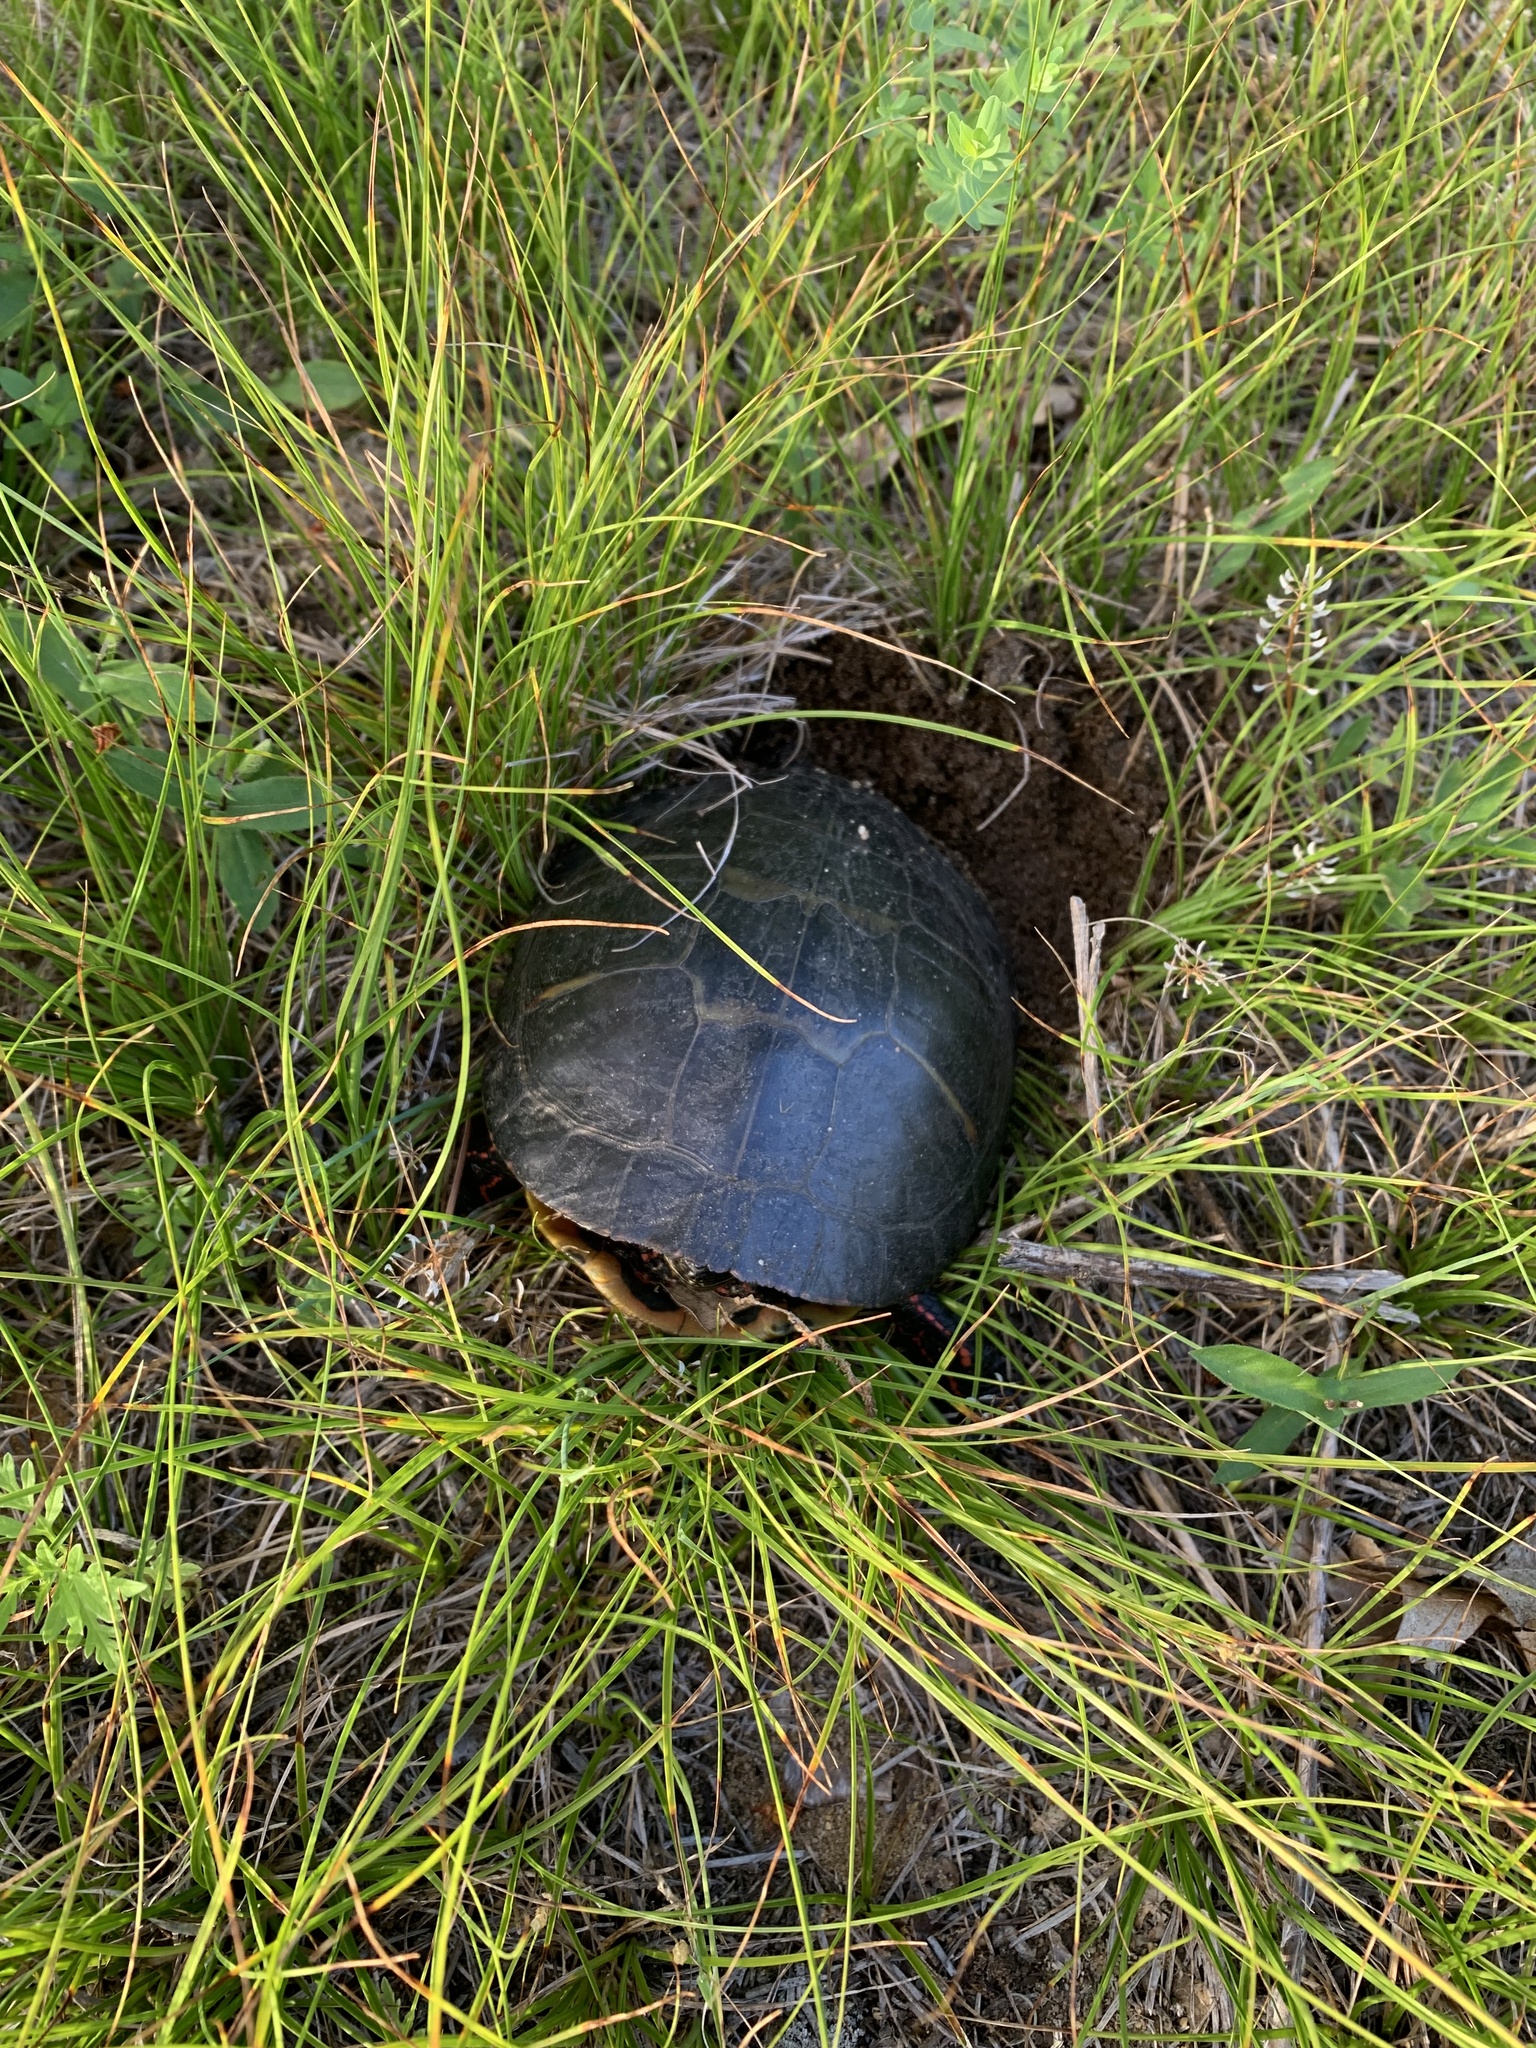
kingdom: Animalia
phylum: Chordata
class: Testudines
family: Emydidae
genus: Chrysemys
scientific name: Chrysemys picta
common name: Painted turtle
